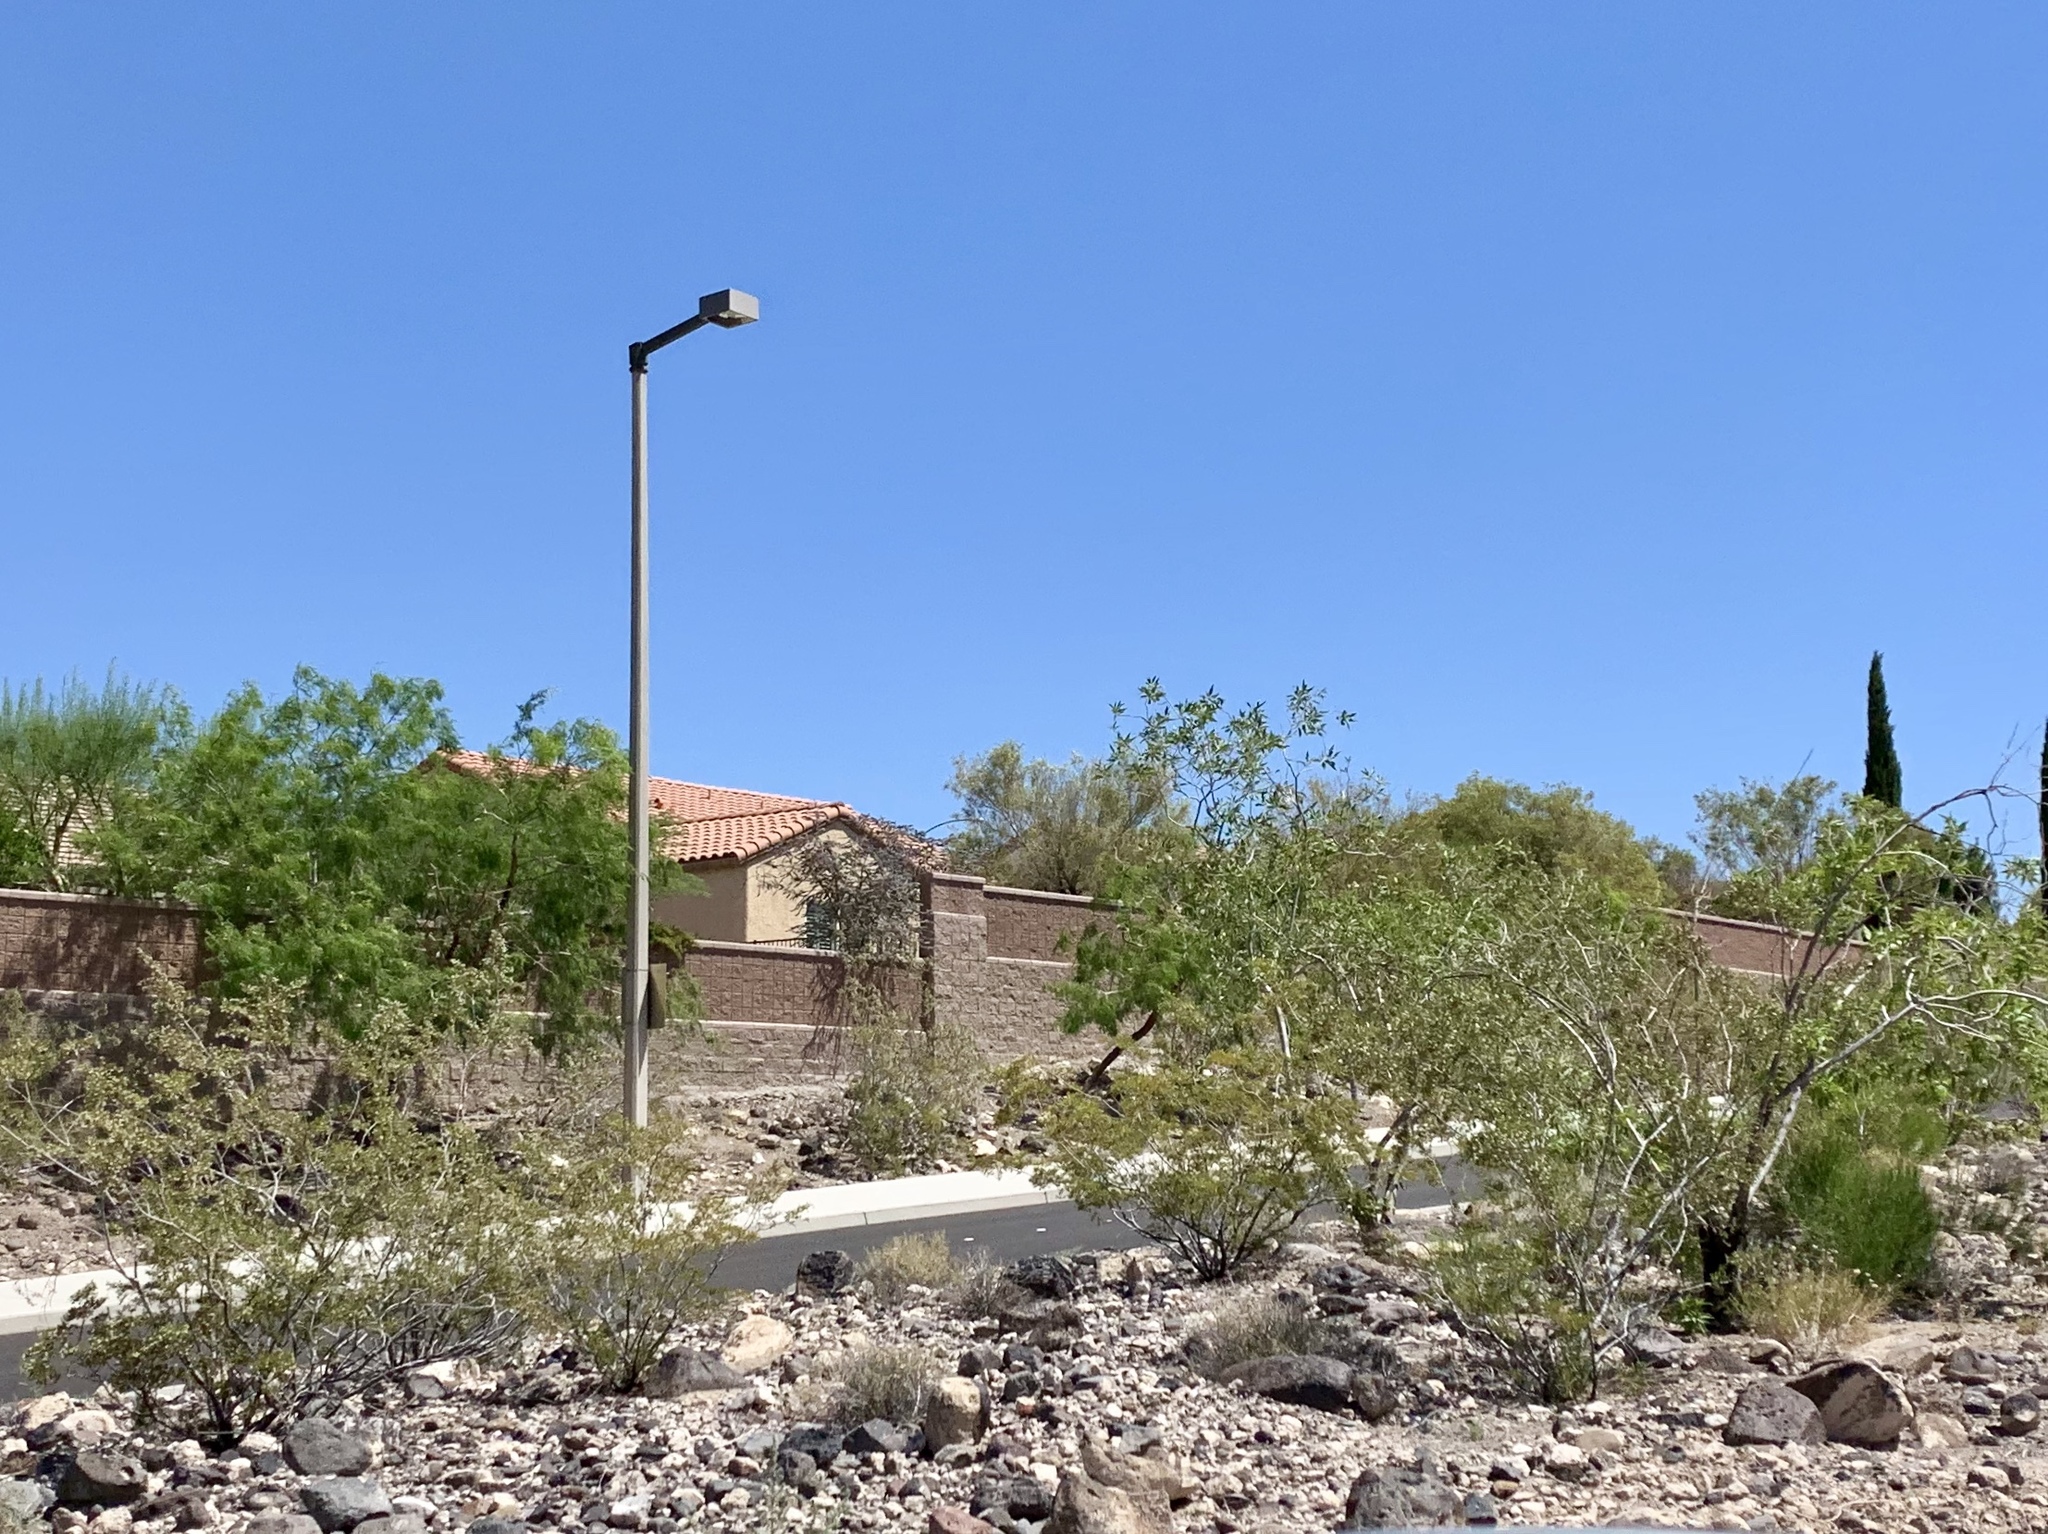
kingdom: Plantae
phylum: Tracheophyta
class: Magnoliopsida
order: Zygophyllales
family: Zygophyllaceae
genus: Larrea
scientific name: Larrea tridentata
